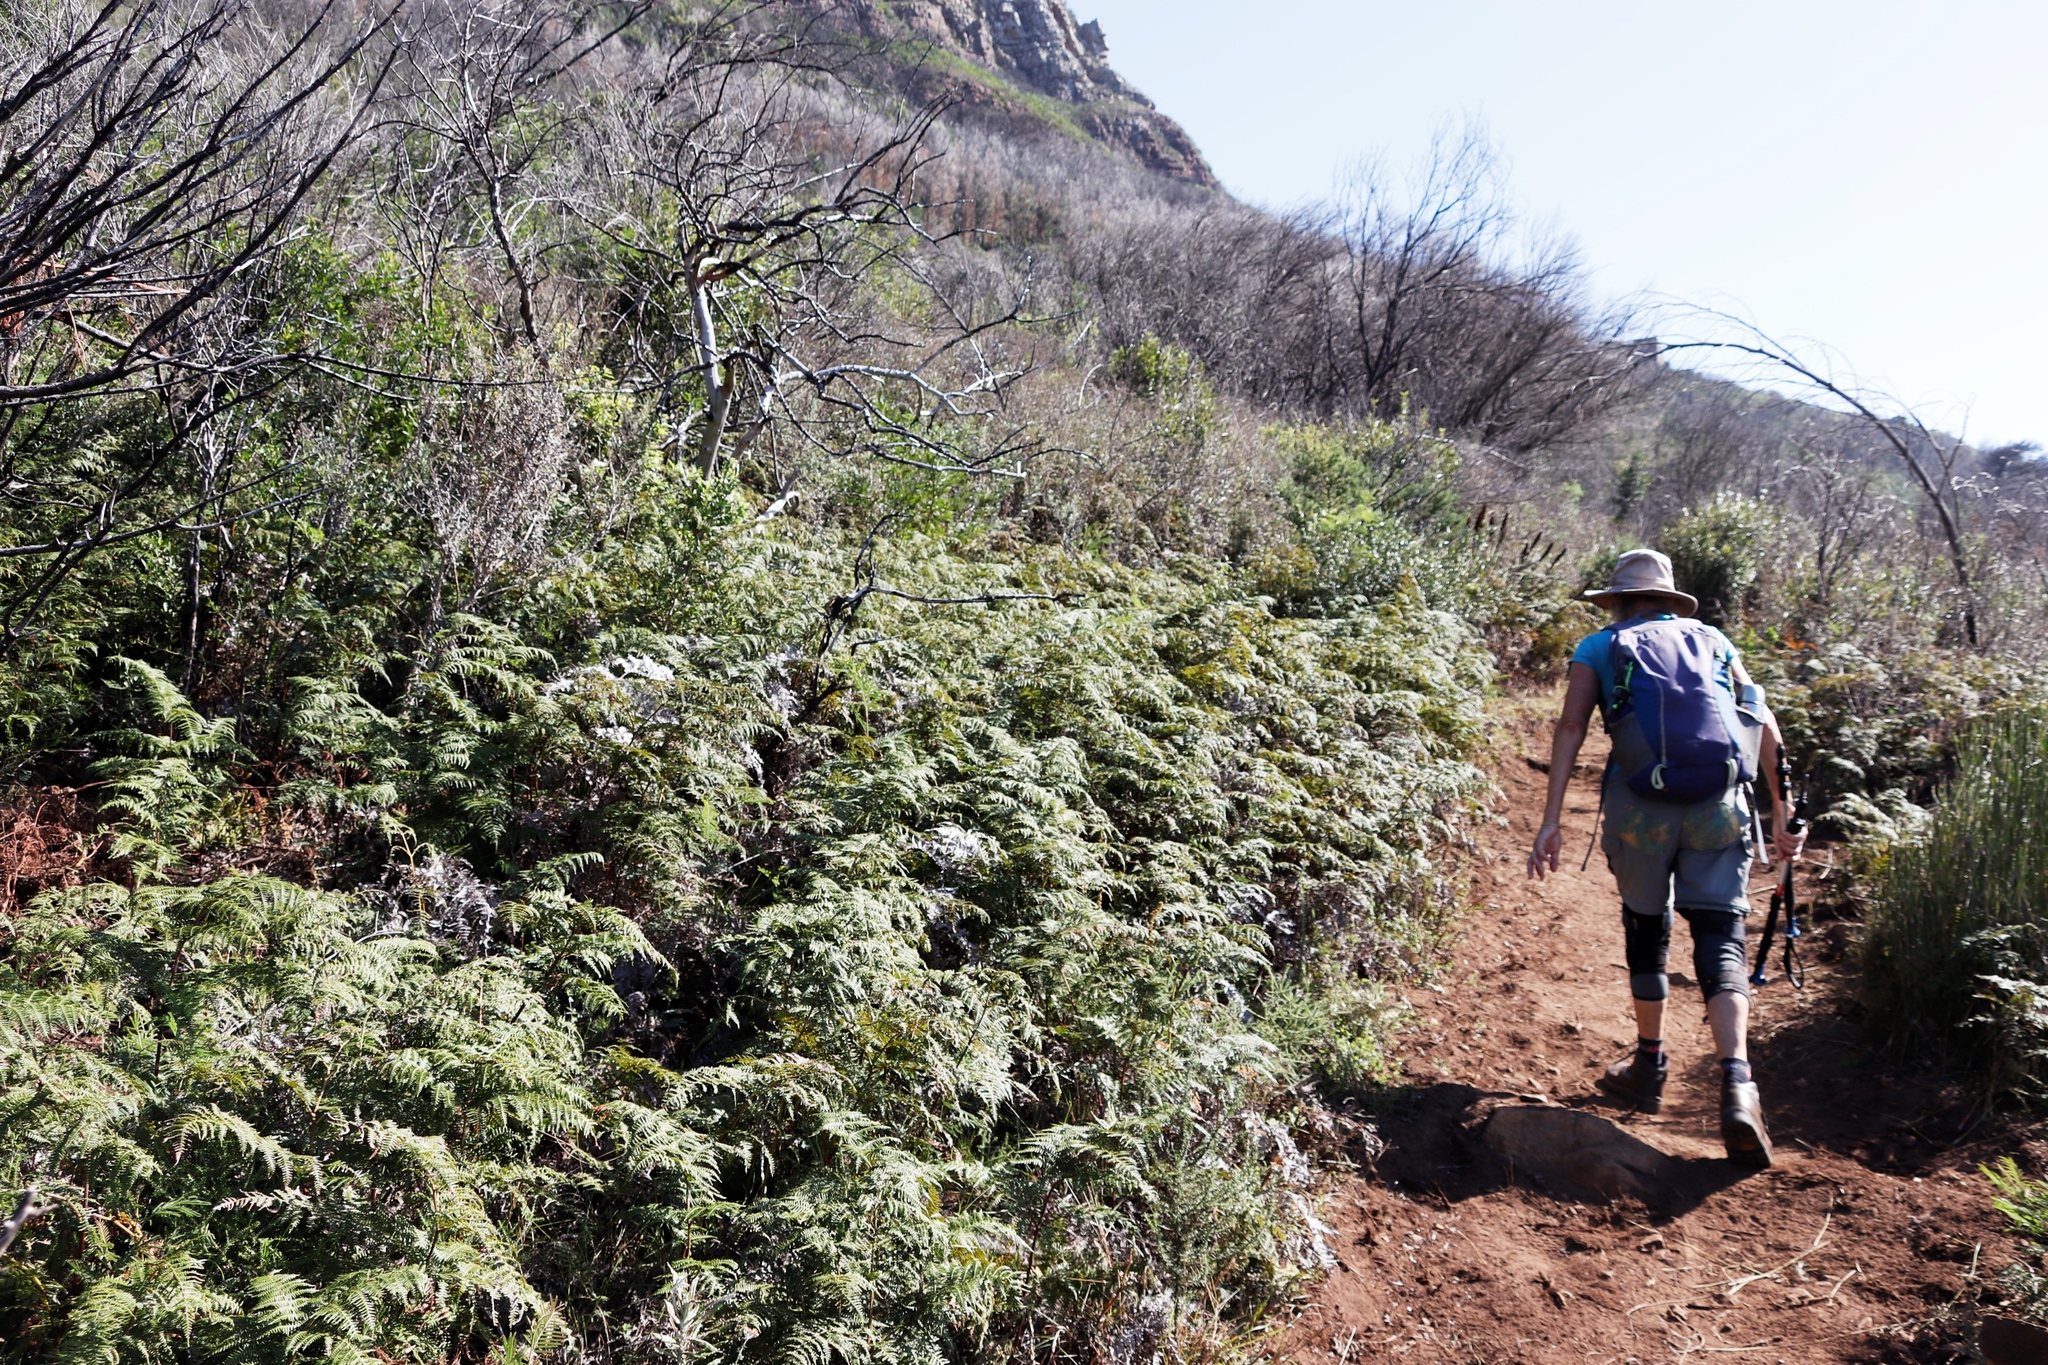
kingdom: Plantae
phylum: Tracheophyta
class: Polypodiopsida
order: Polypodiales
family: Dennstaedtiaceae
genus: Pteridium
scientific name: Pteridium aquilinum
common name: Bracken
